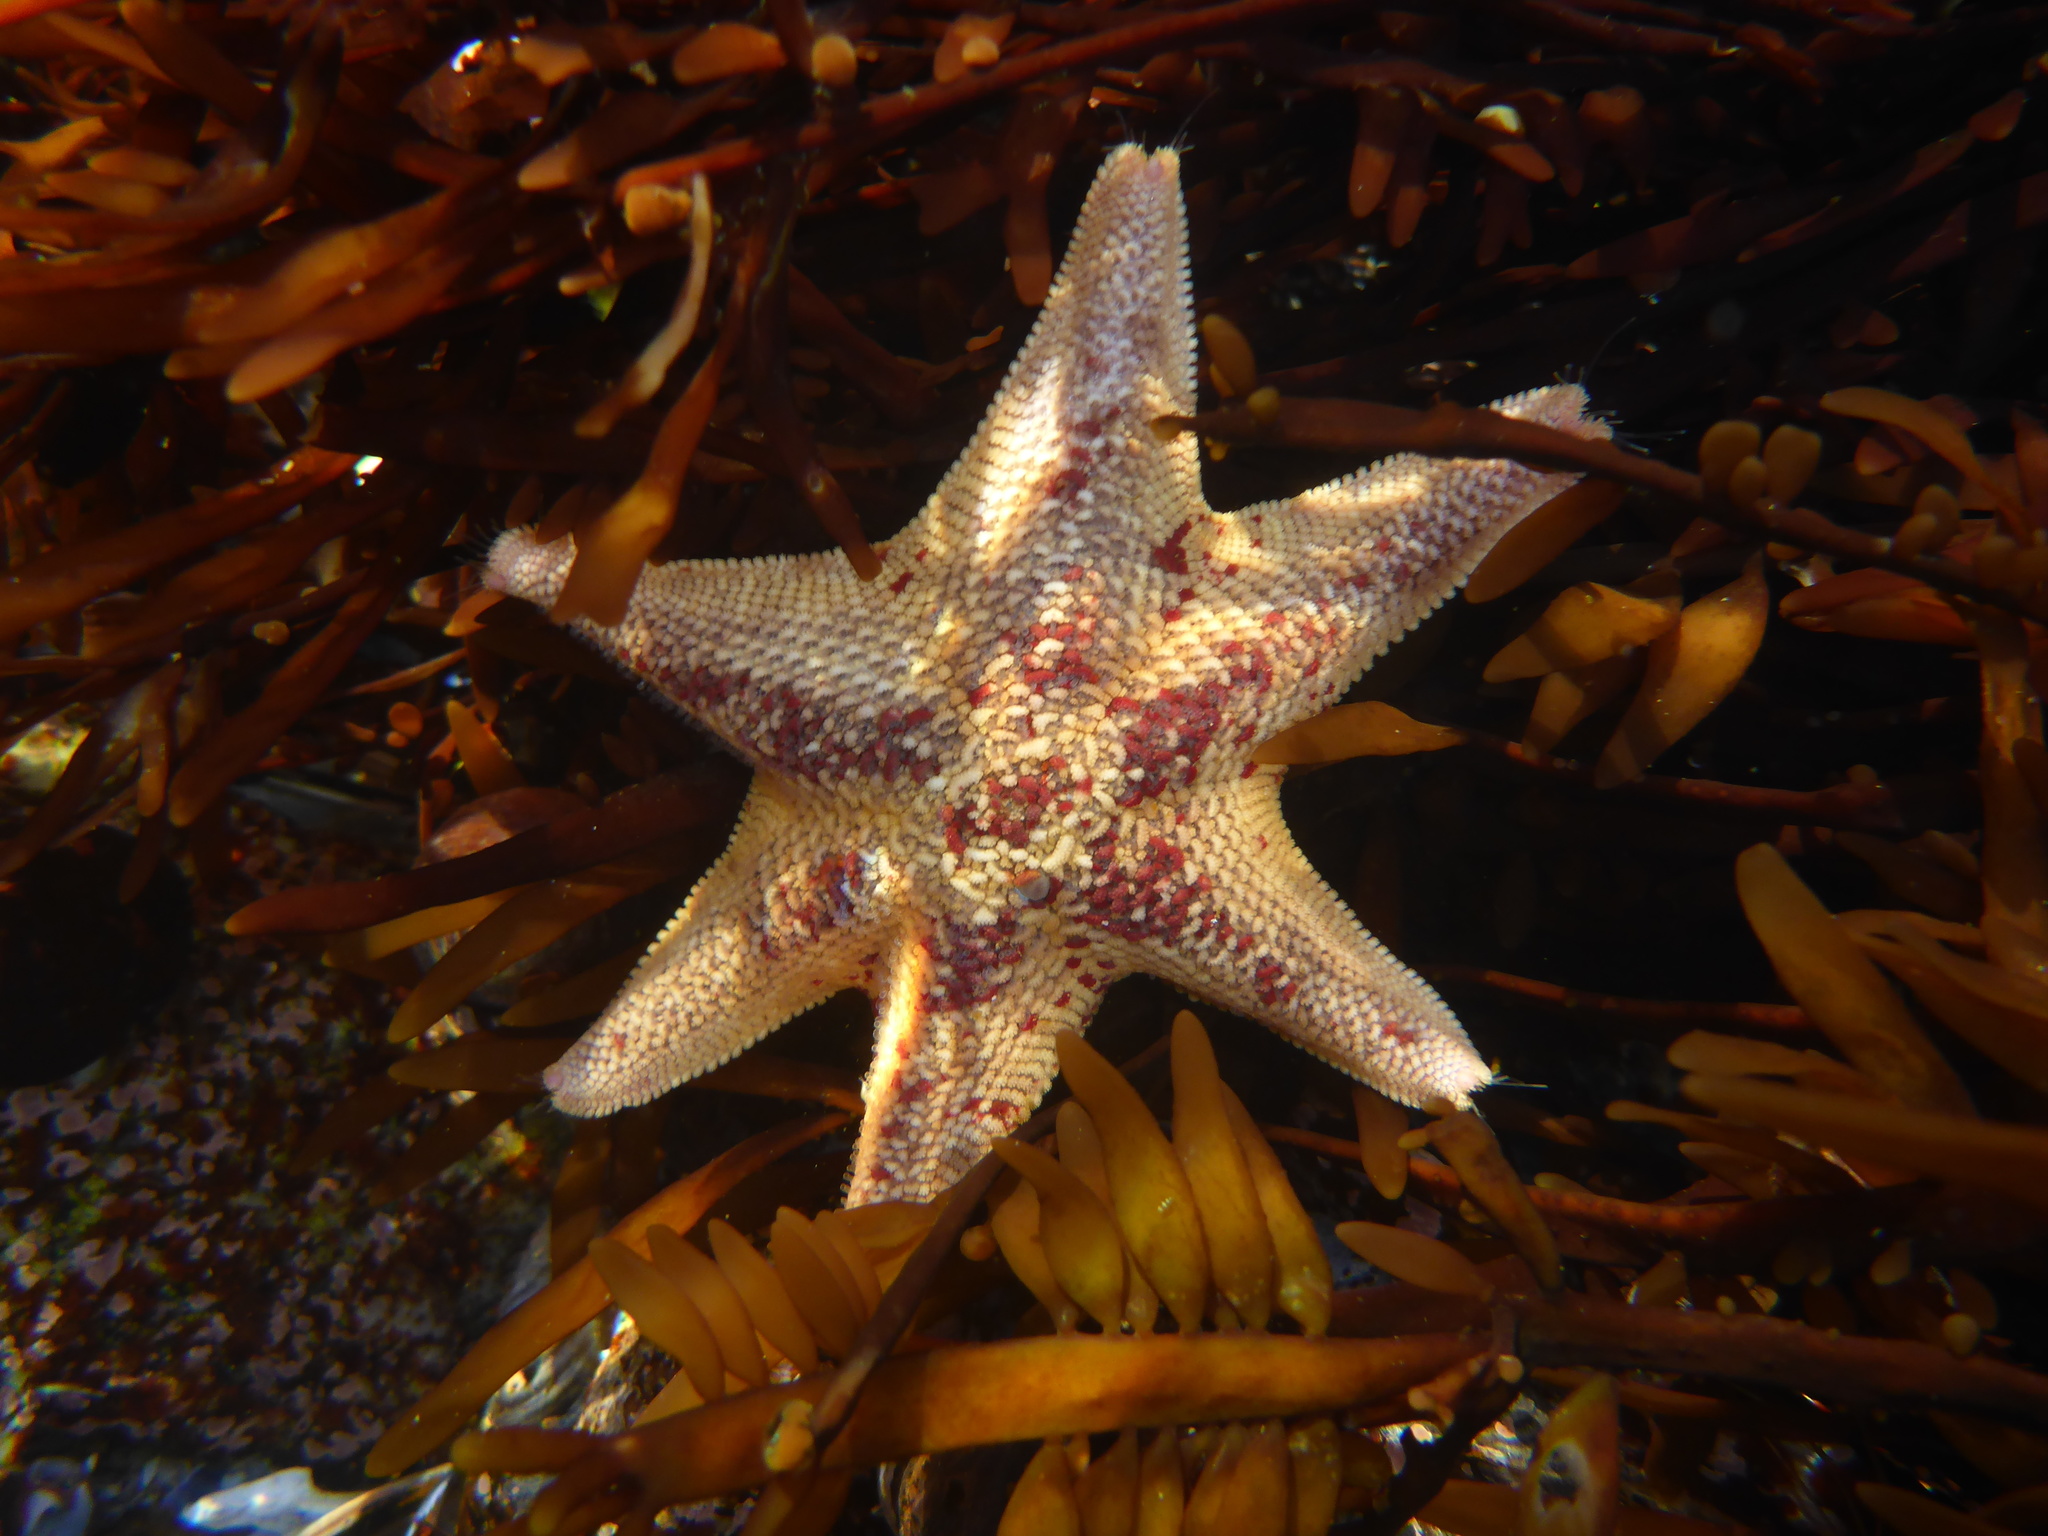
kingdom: Animalia
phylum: Echinodermata
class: Asteroidea
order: Valvatida
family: Asterinidae
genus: Patiria
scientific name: Patiria miniata
